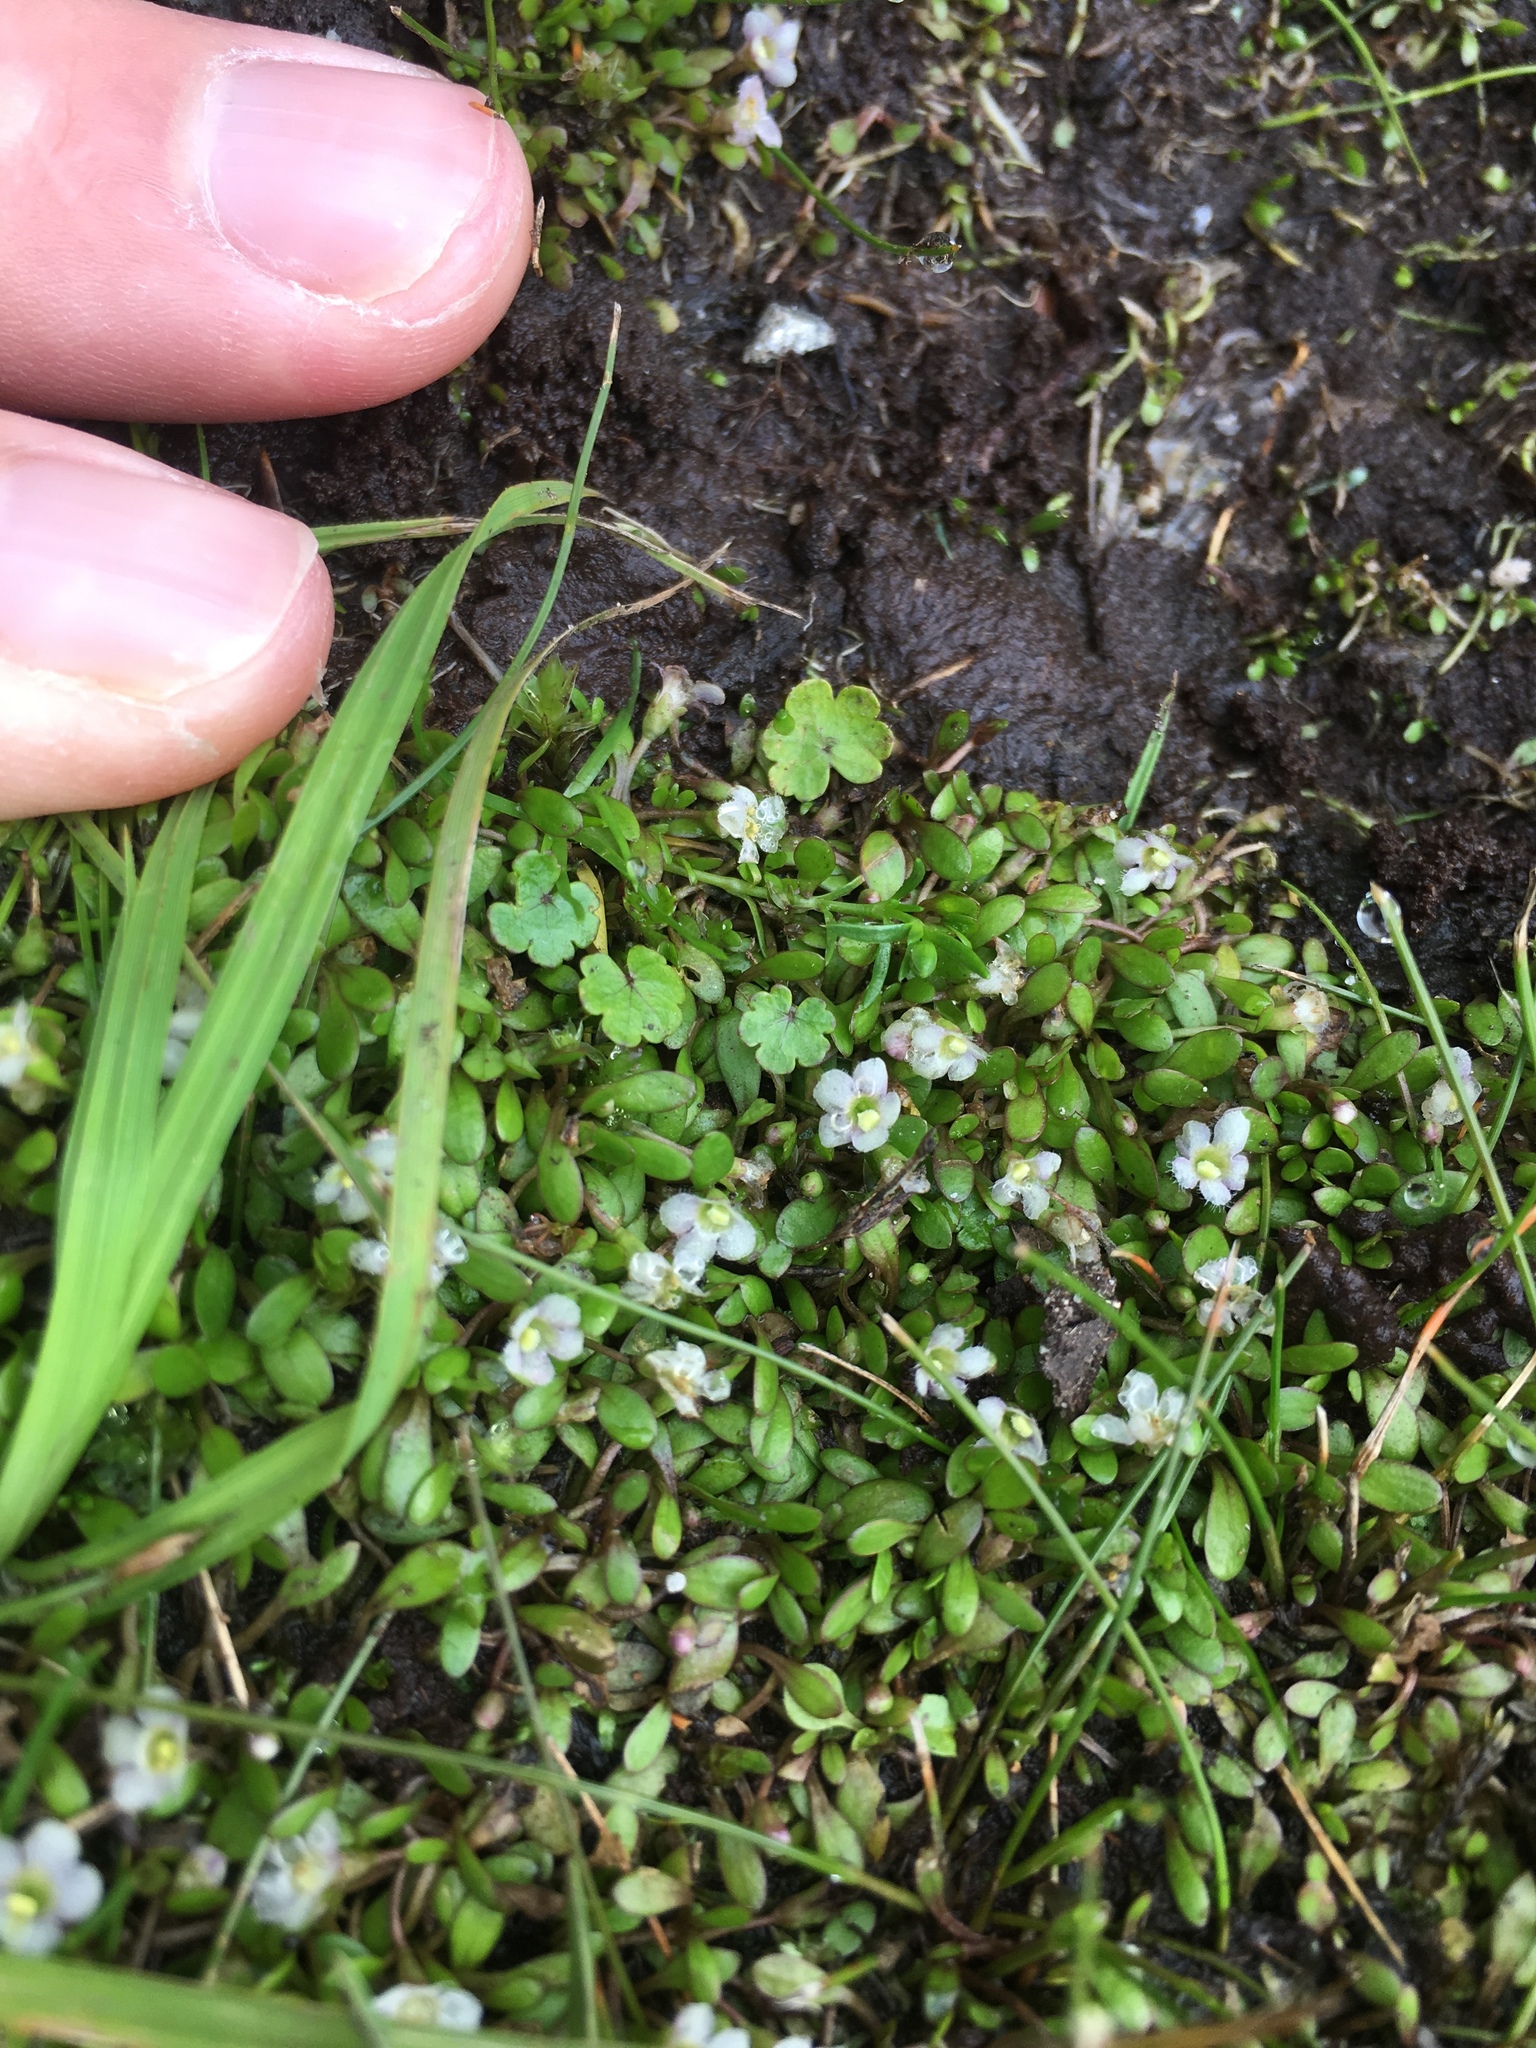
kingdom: Plantae
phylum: Tracheophyta
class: Magnoliopsida
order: Lamiales
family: Phrymaceae
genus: Glossostigma
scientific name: Glossostigma elatinoides
